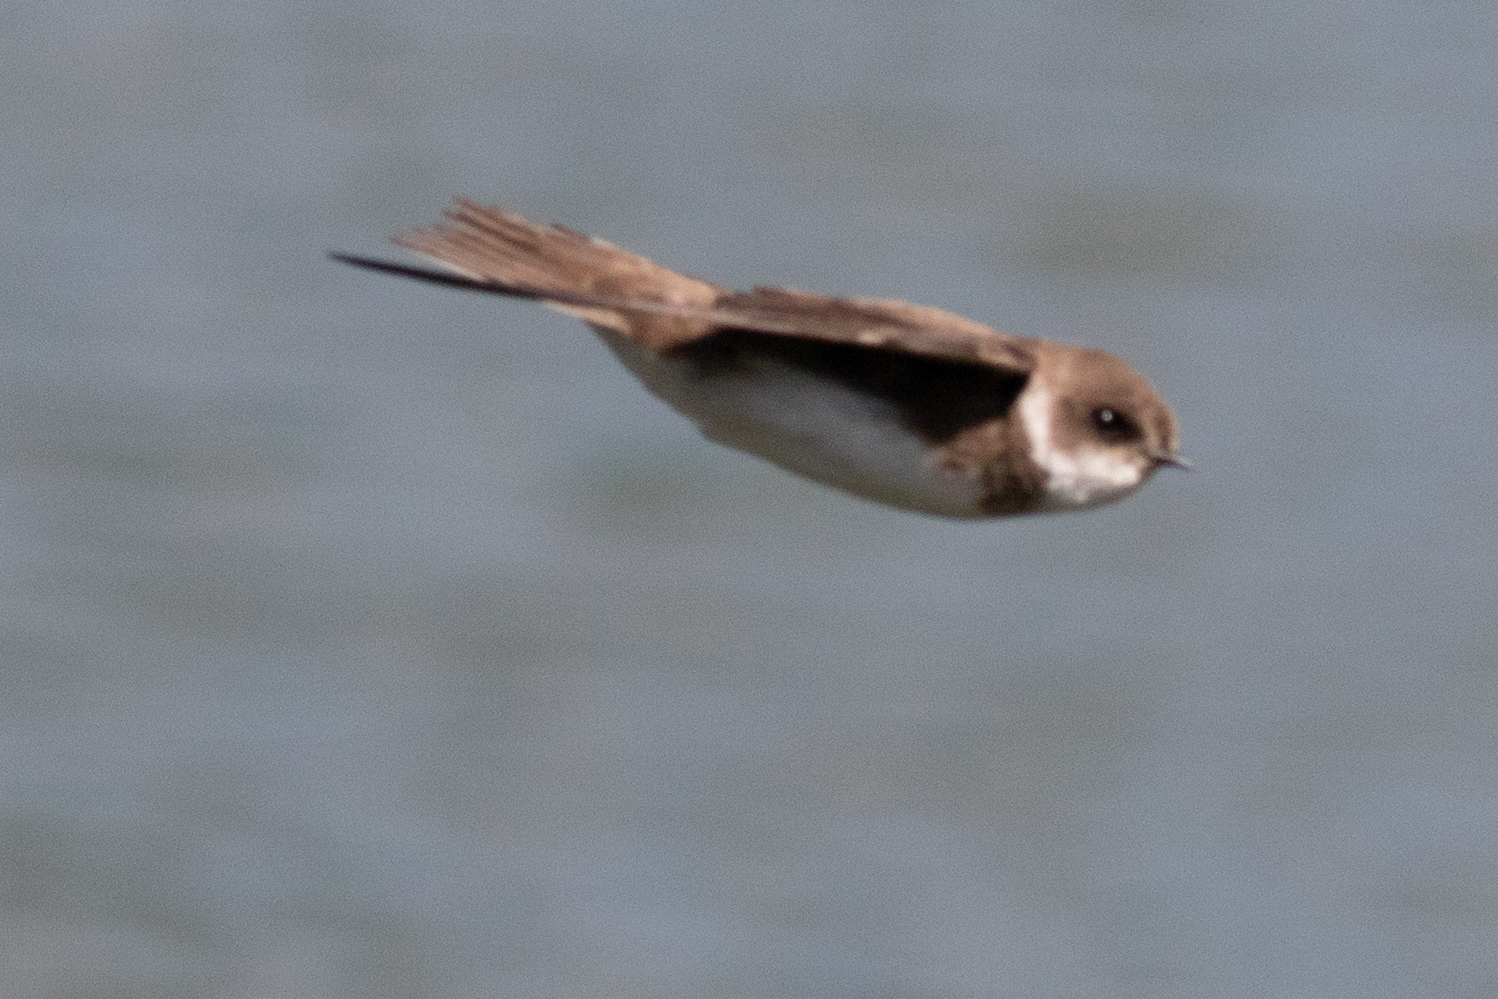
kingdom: Animalia
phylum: Chordata
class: Aves
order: Passeriformes
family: Hirundinidae
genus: Riparia
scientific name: Riparia riparia
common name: Sand martin
